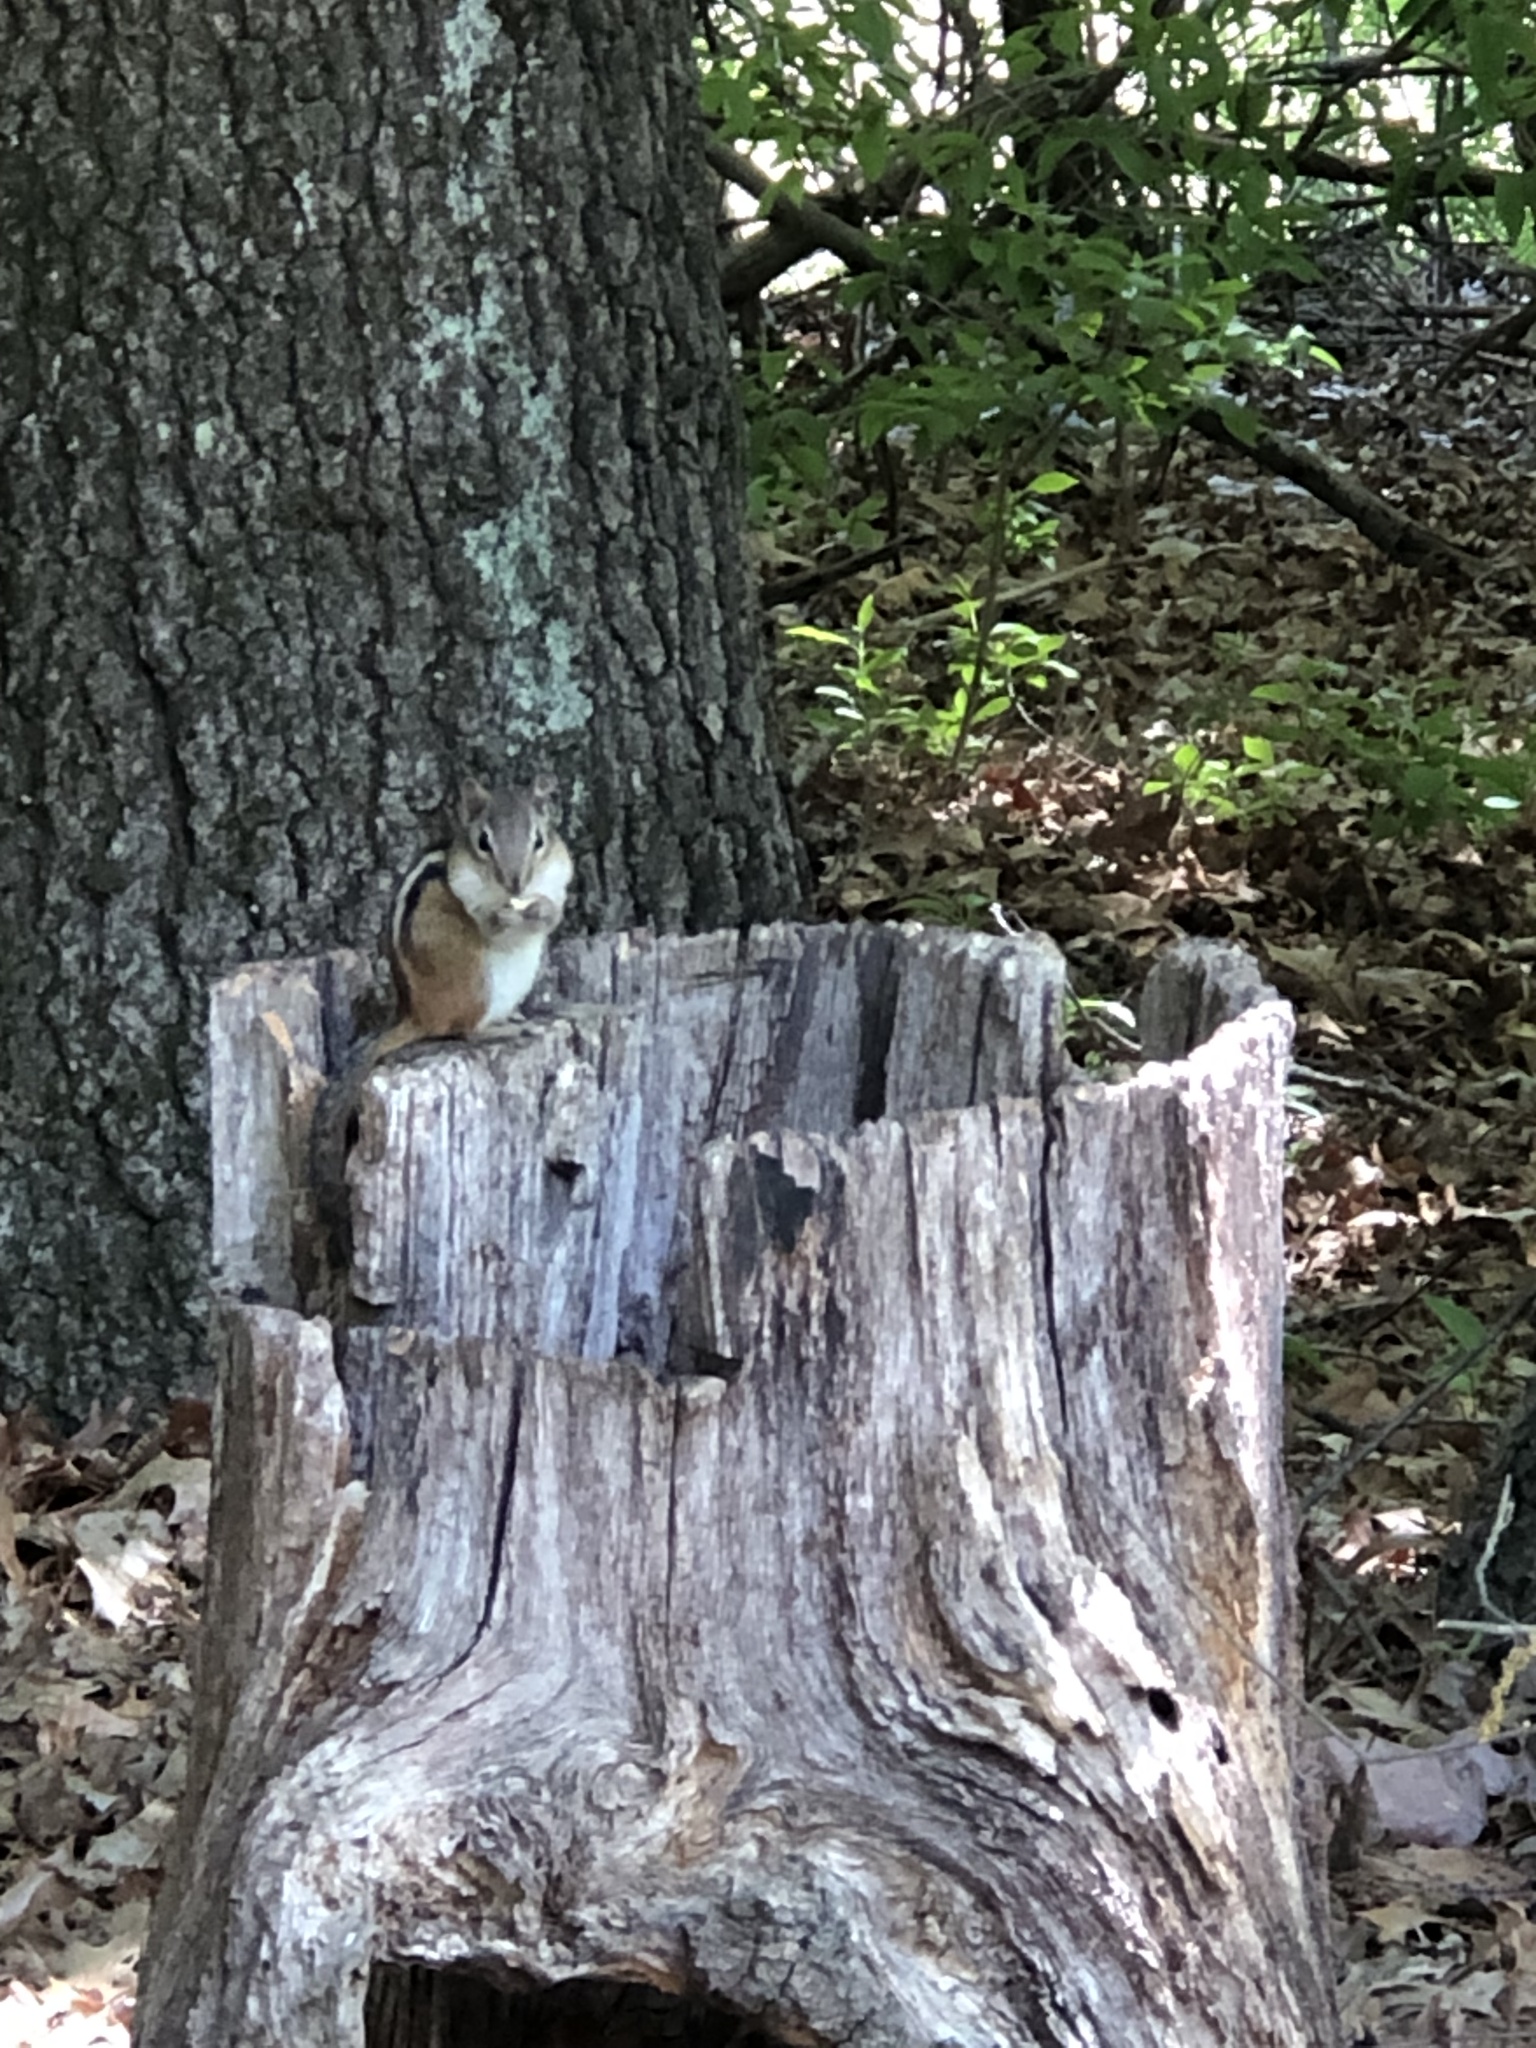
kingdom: Animalia
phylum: Chordata
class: Mammalia
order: Rodentia
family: Sciuridae
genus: Tamias
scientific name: Tamias striatus
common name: Eastern chipmunk
